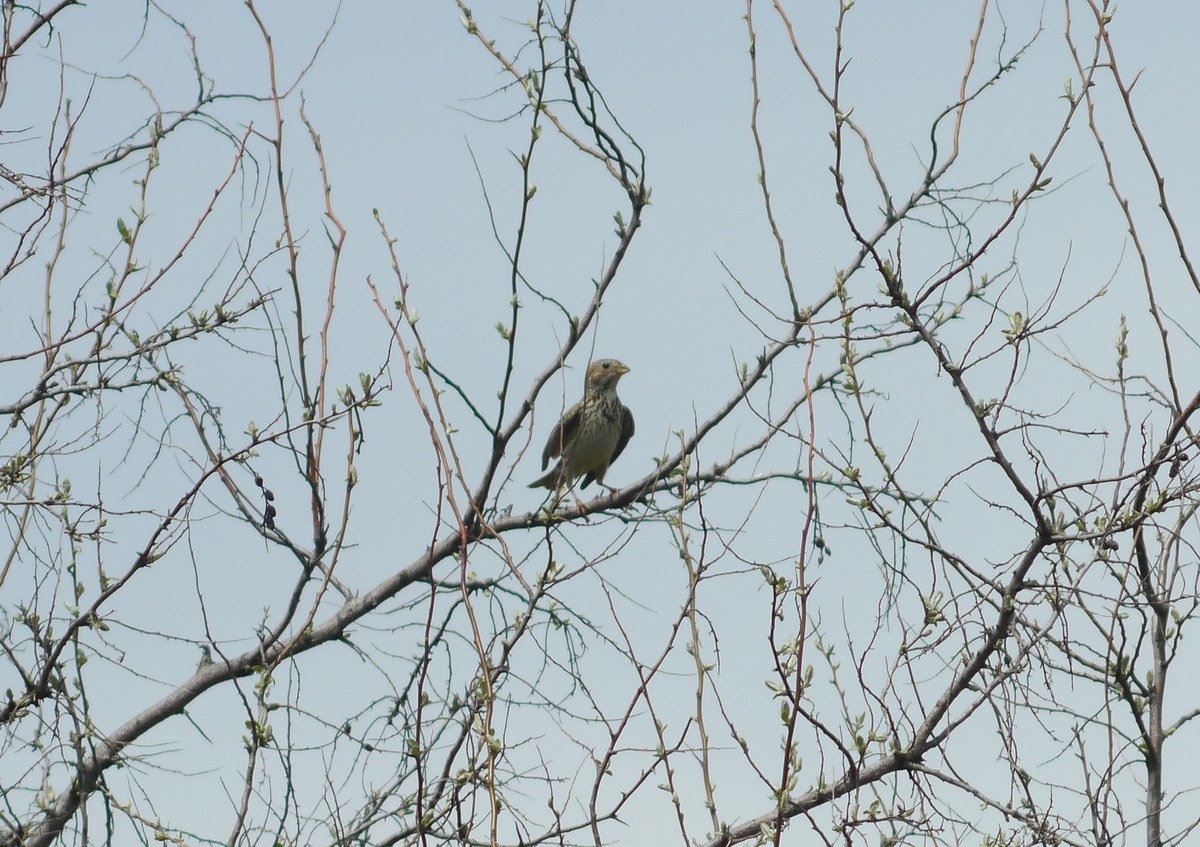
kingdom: Animalia
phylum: Chordata
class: Aves
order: Passeriformes
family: Emberizidae
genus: Emberiza
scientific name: Emberiza calandra
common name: Corn bunting
